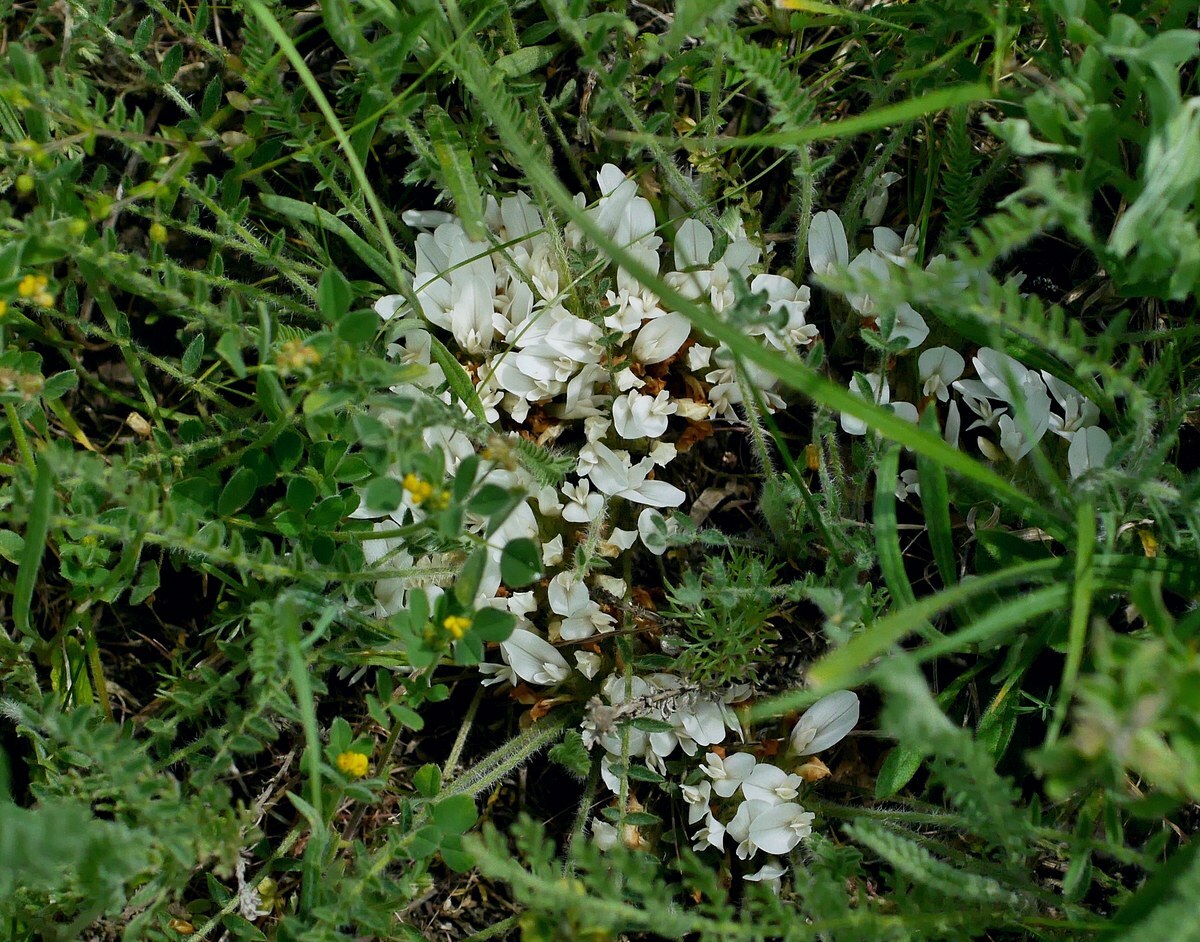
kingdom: Plantae
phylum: Tracheophyta
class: Magnoliopsida
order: Fabales
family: Fabaceae
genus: Astragalus
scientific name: Astragalus dolichophyllus
